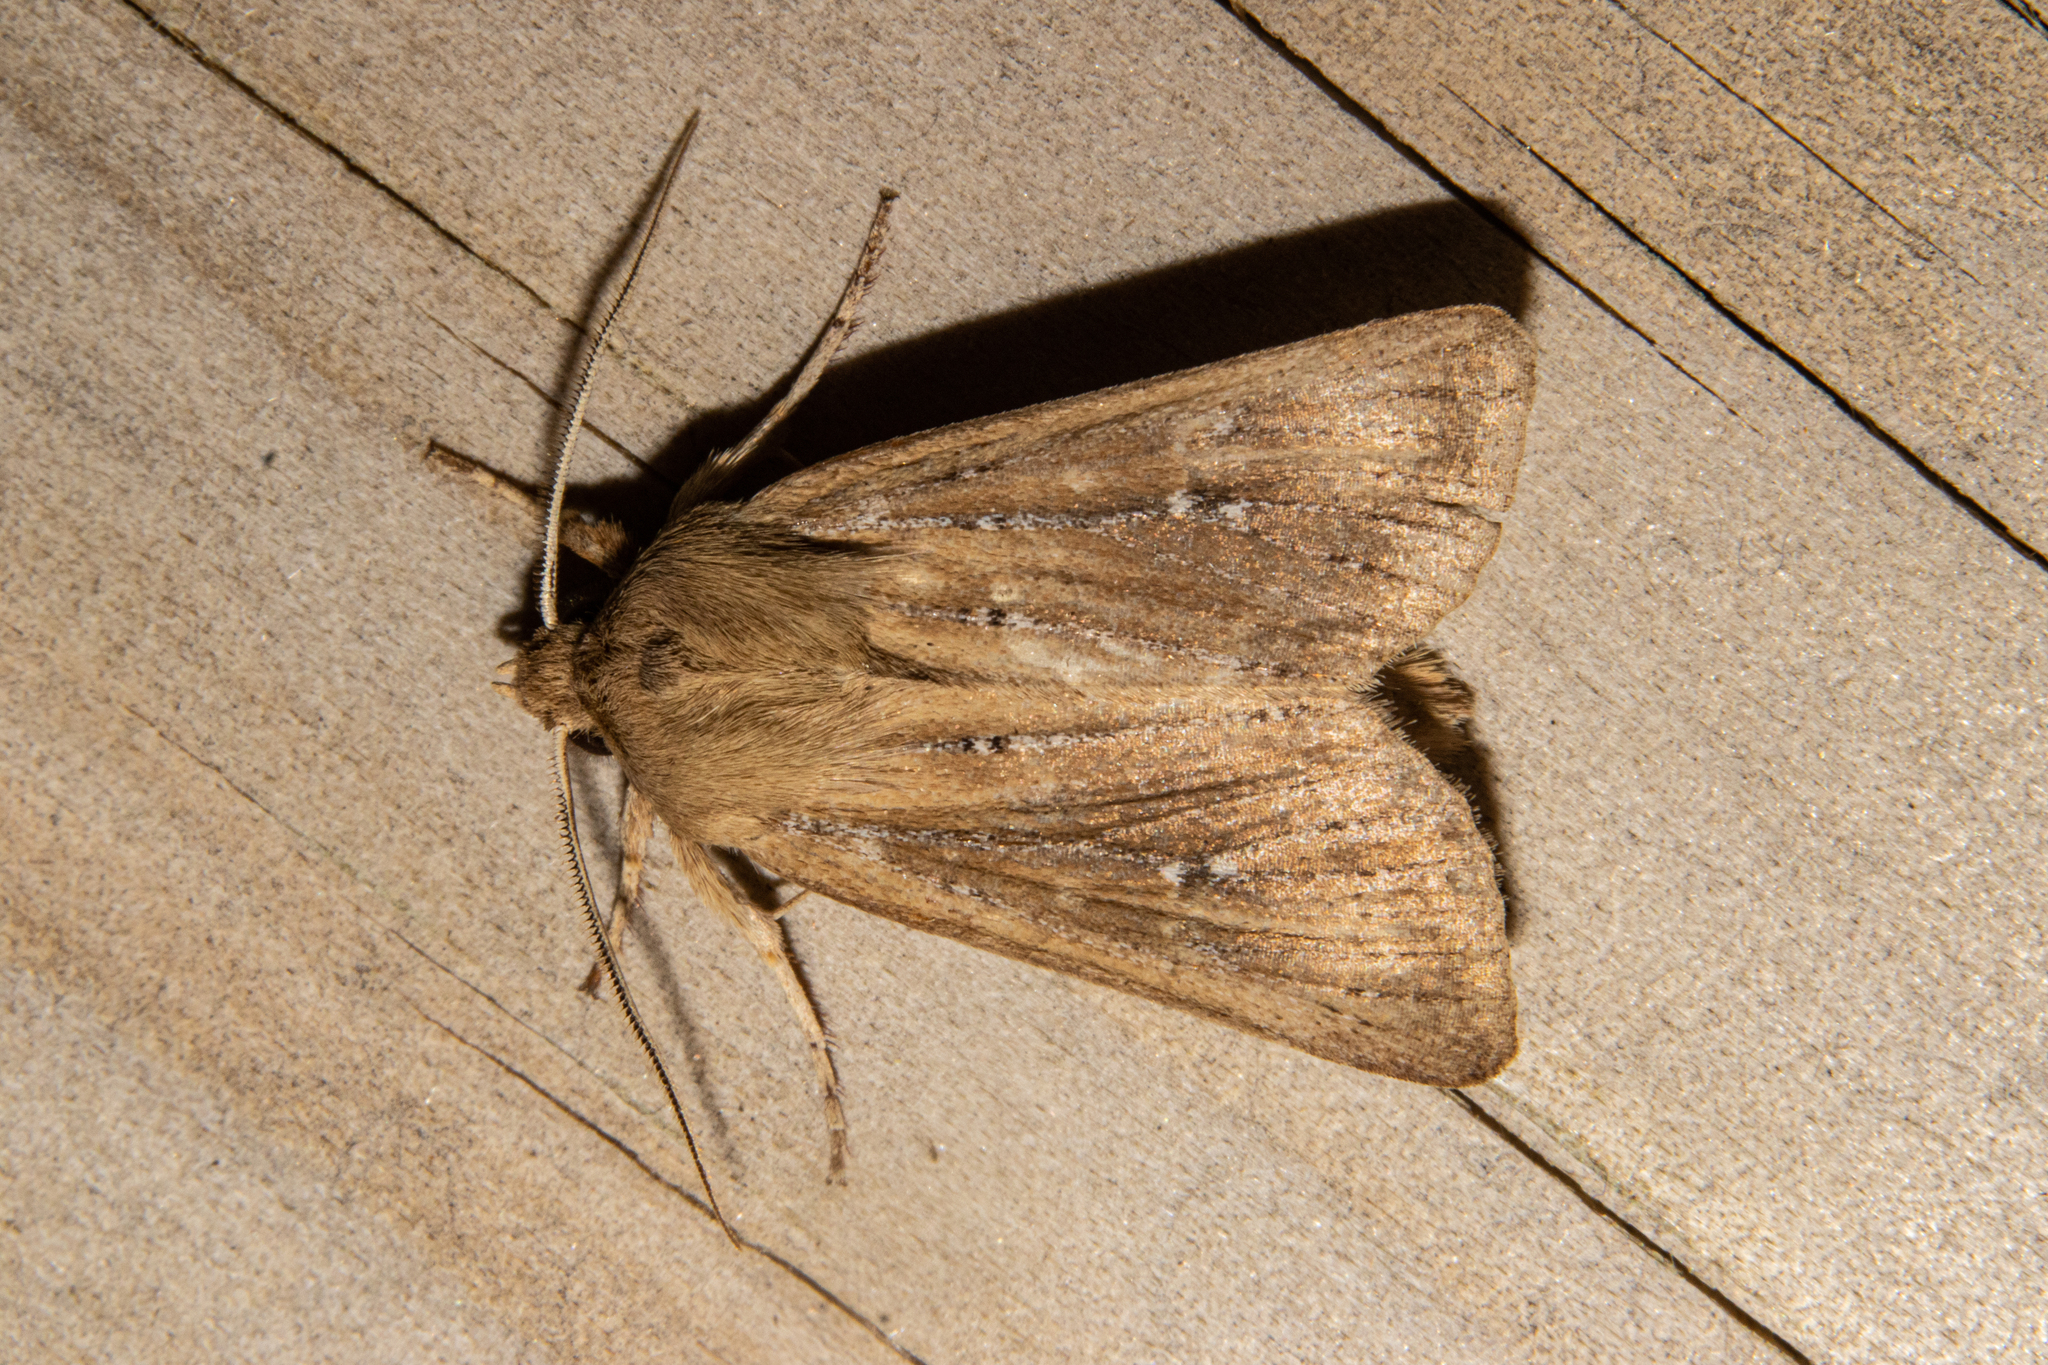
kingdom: Animalia
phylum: Arthropoda
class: Insecta
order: Lepidoptera
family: Noctuidae
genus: Ichneutica
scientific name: Ichneutica
